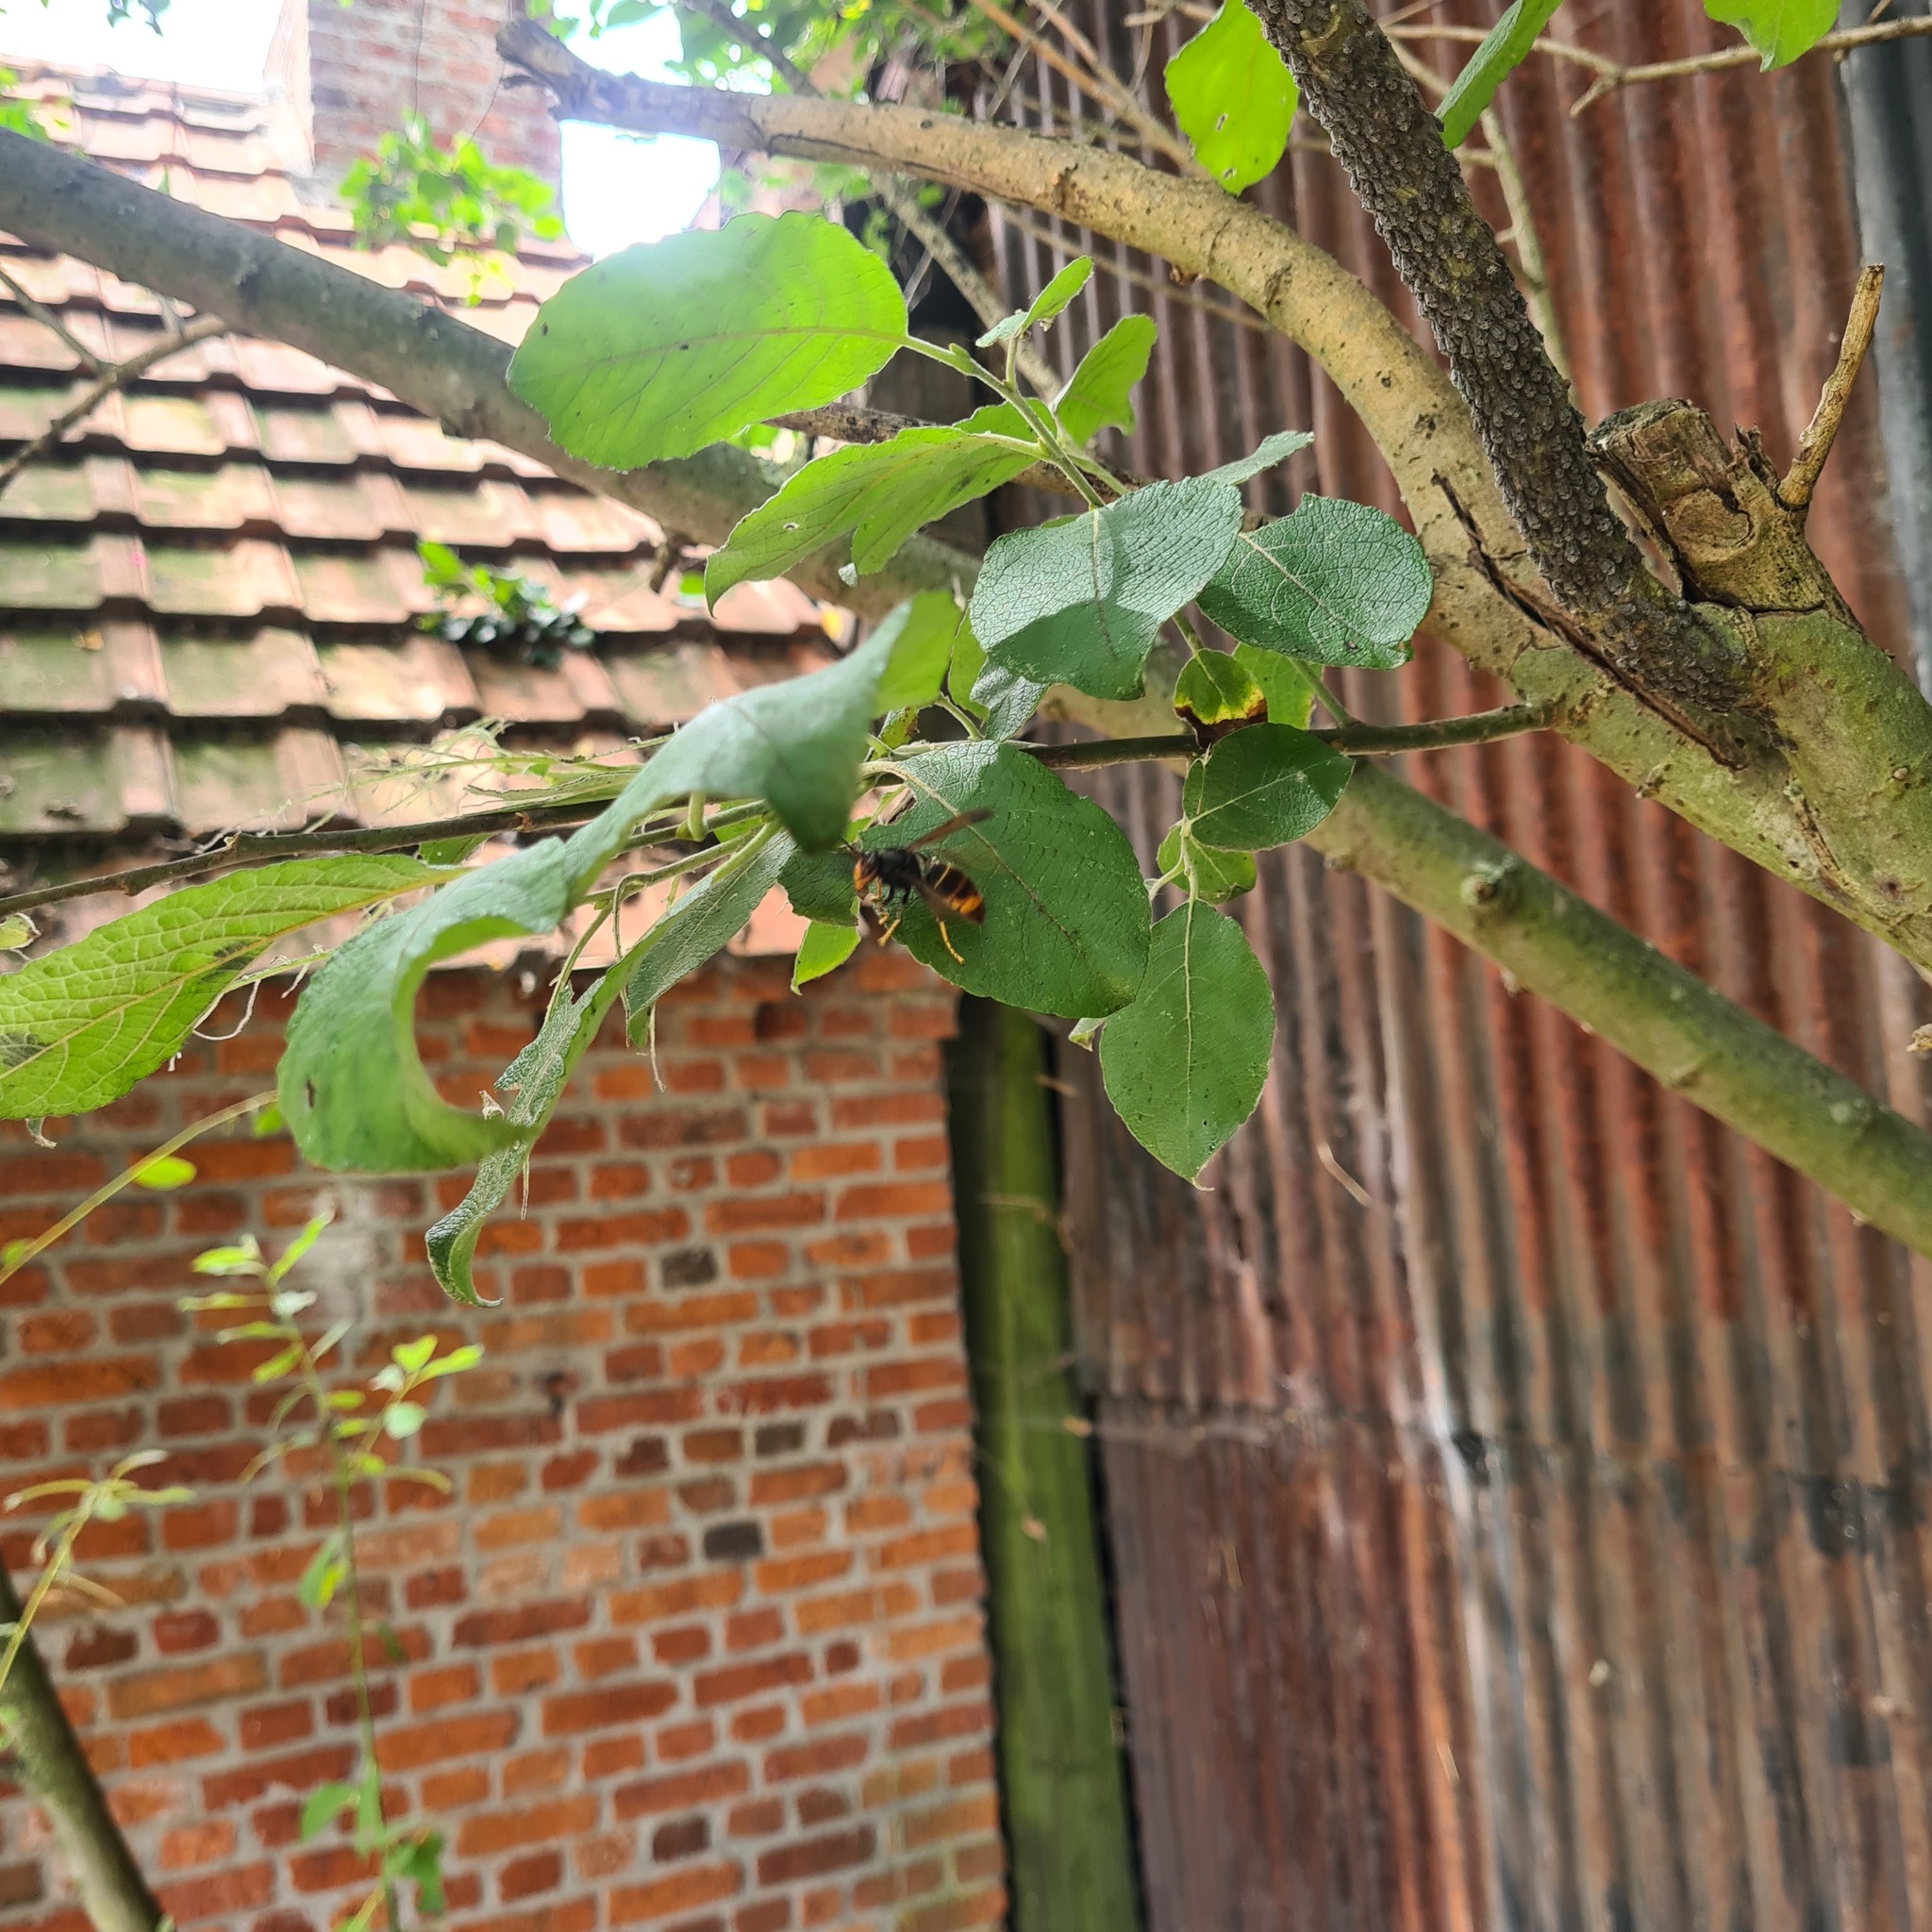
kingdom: Animalia
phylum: Arthropoda
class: Insecta
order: Hymenoptera
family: Vespidae
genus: Vespa
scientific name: Vespa velutina
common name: Asian hornet
